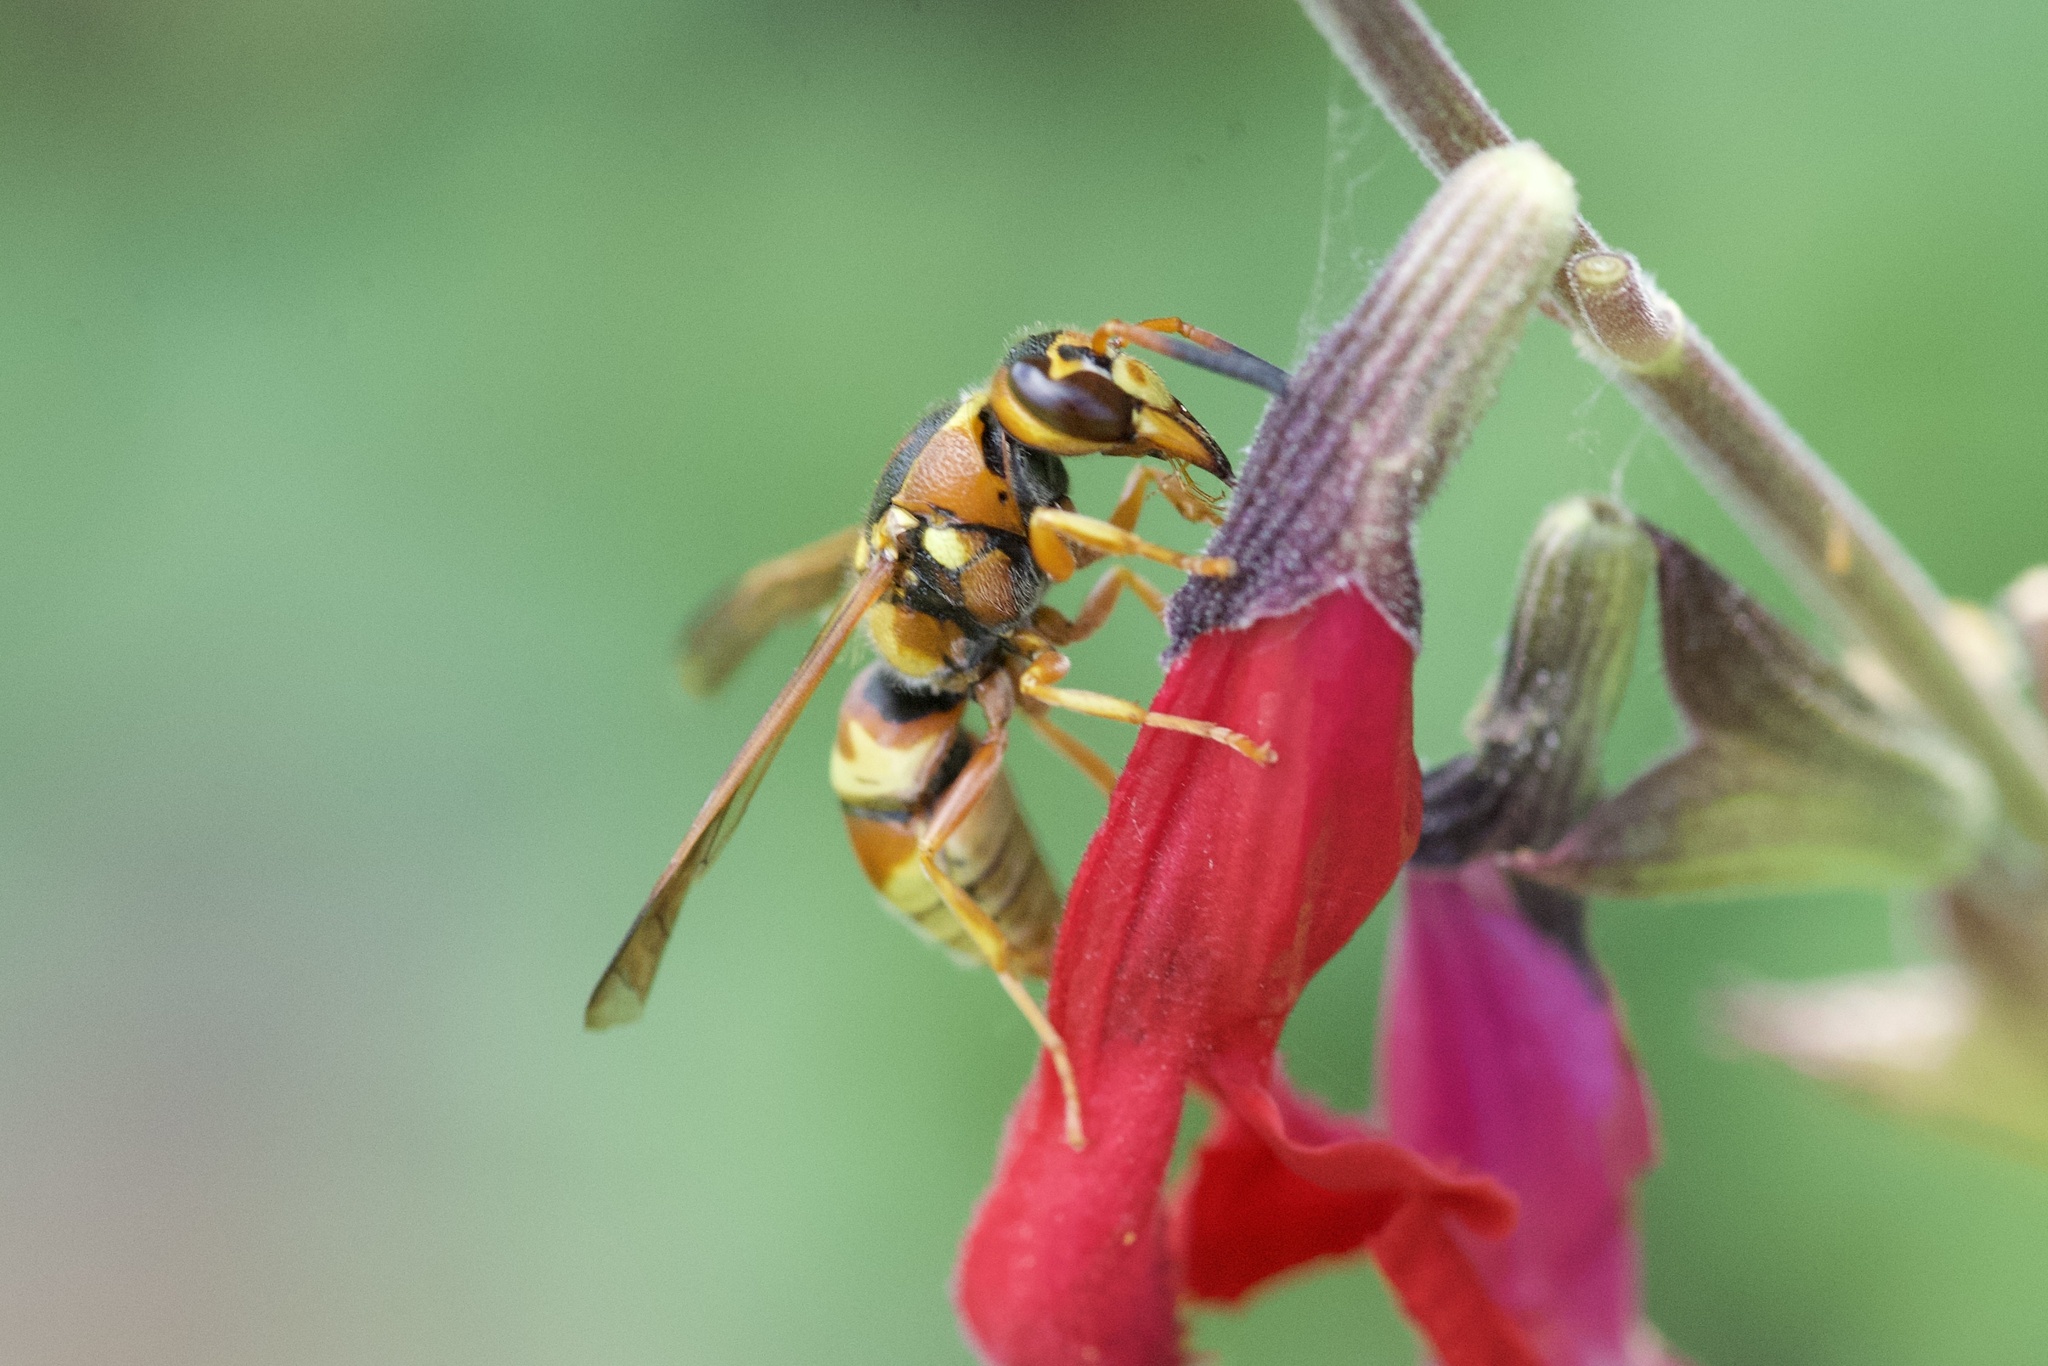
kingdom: Animalia
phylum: Arthropoda
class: Insecta
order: Hymenoptera
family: Eumenidae
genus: Euodynerus
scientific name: Euodynerus pratensis
